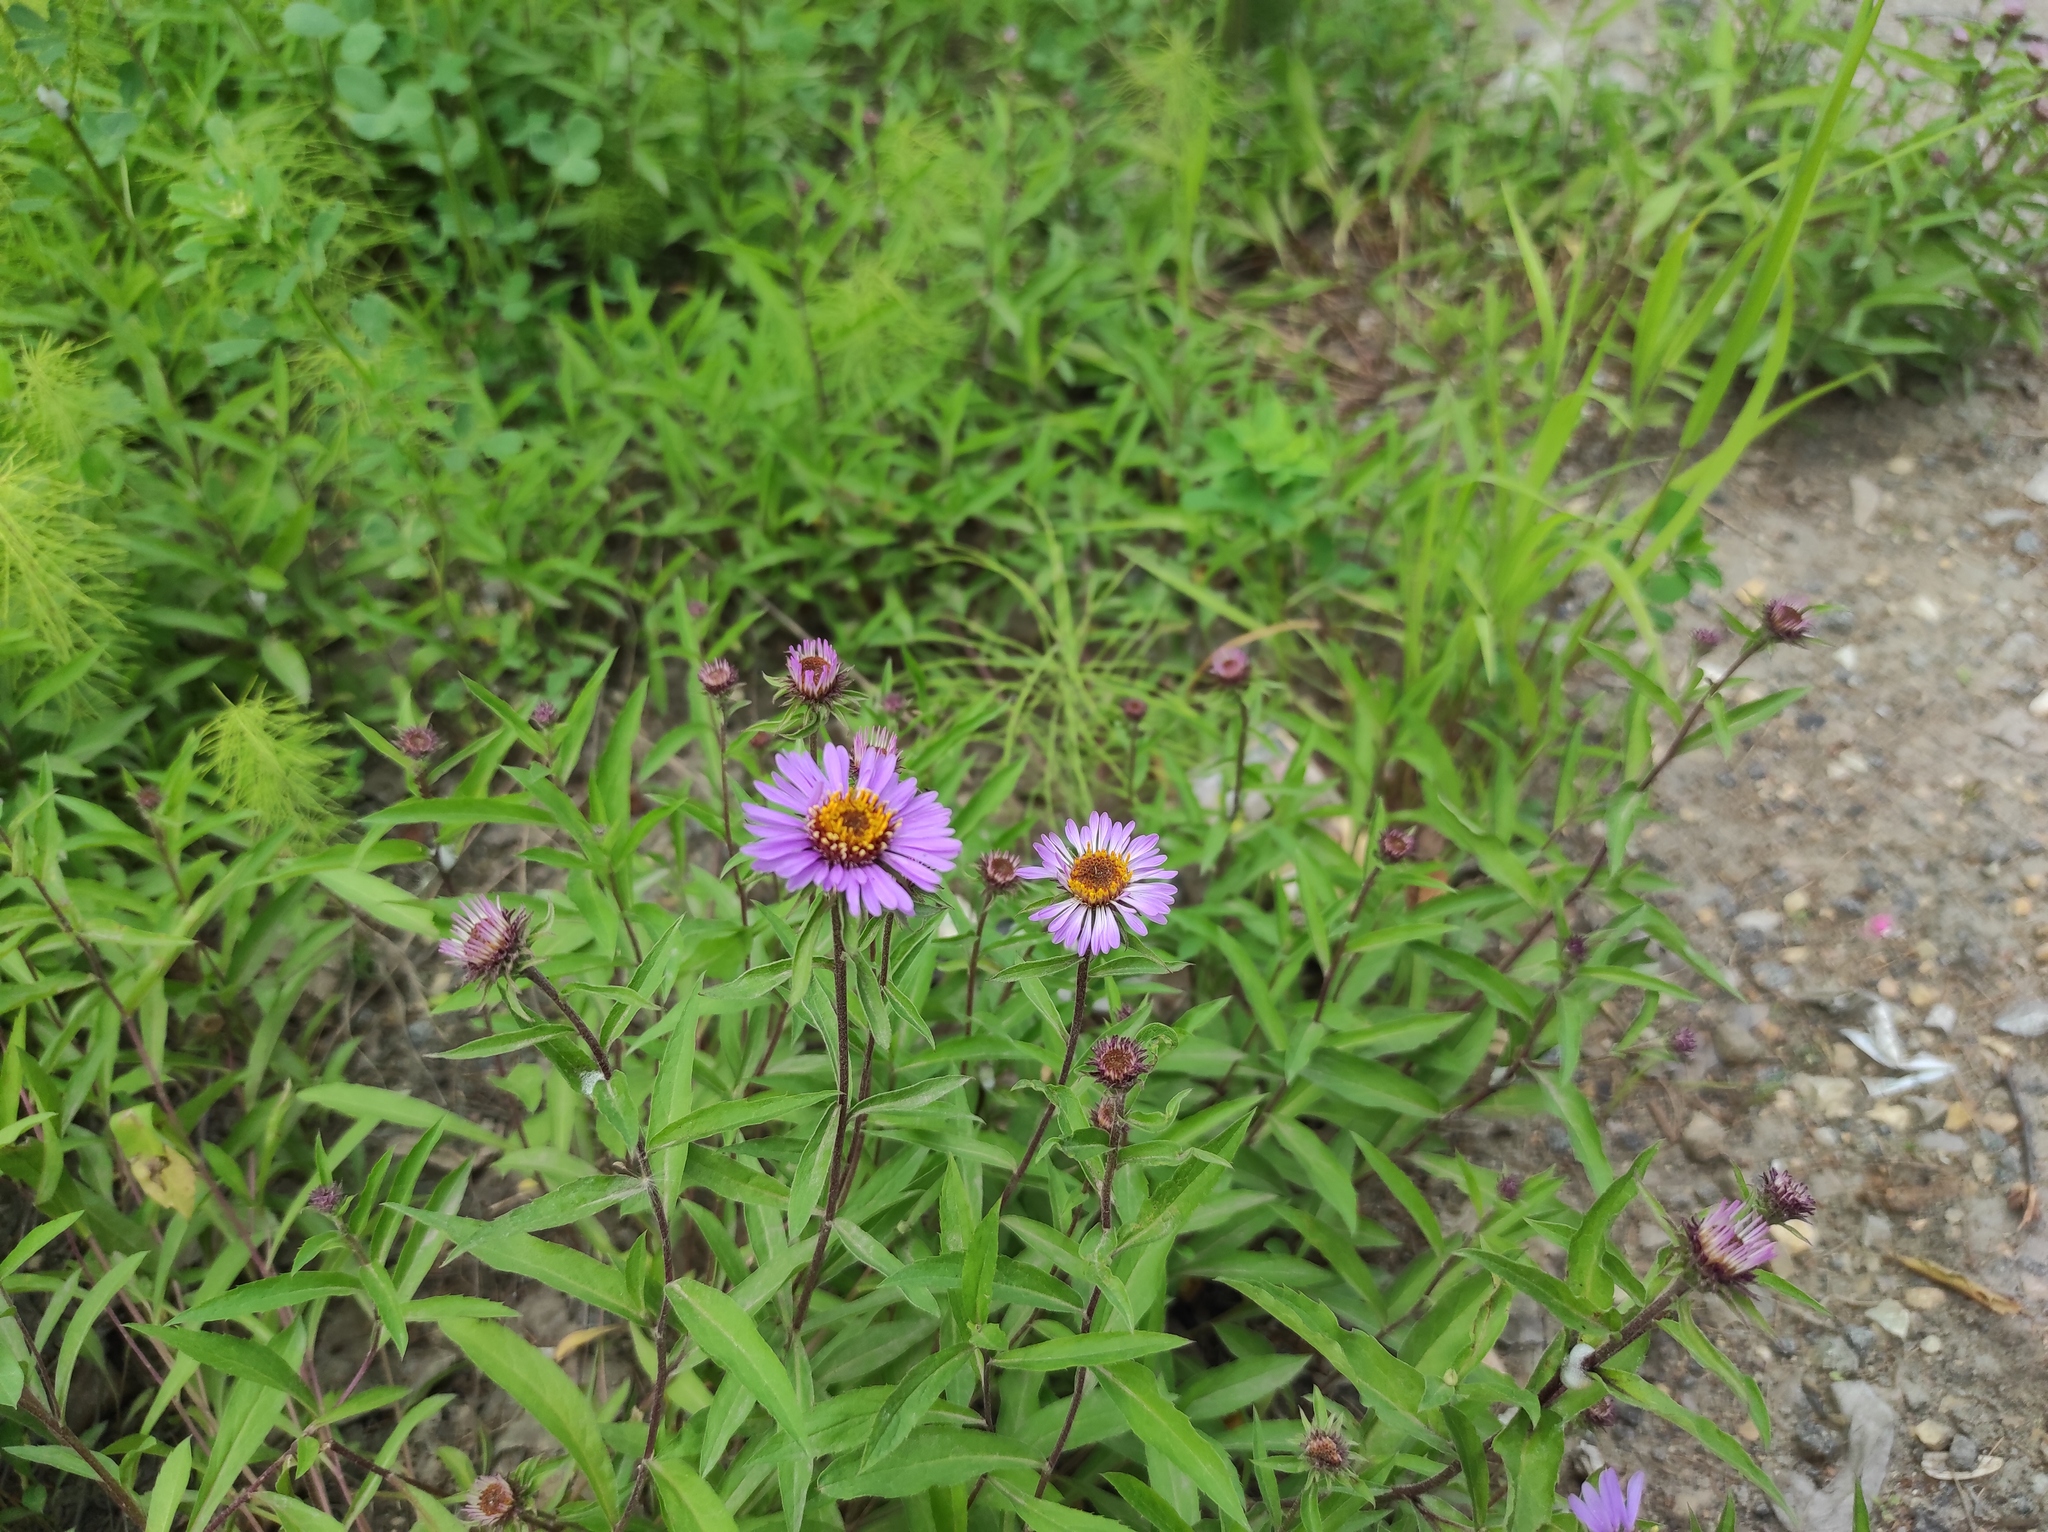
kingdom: Plantae
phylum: Tracheophyta
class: Magnoliopsida
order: Asterales
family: Asteraceae
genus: Eurybia
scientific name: Eurybia sibirica
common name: Arctic aster
